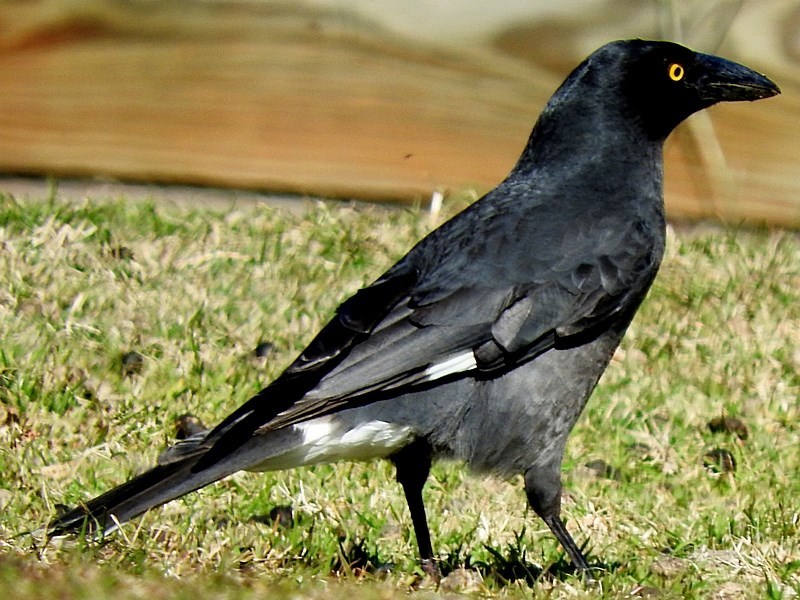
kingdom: Animalia
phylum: Chordata
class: Aves
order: Passeriformes
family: Cracticidae
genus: Strepera
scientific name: Strepera graculina
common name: Pied currawong
